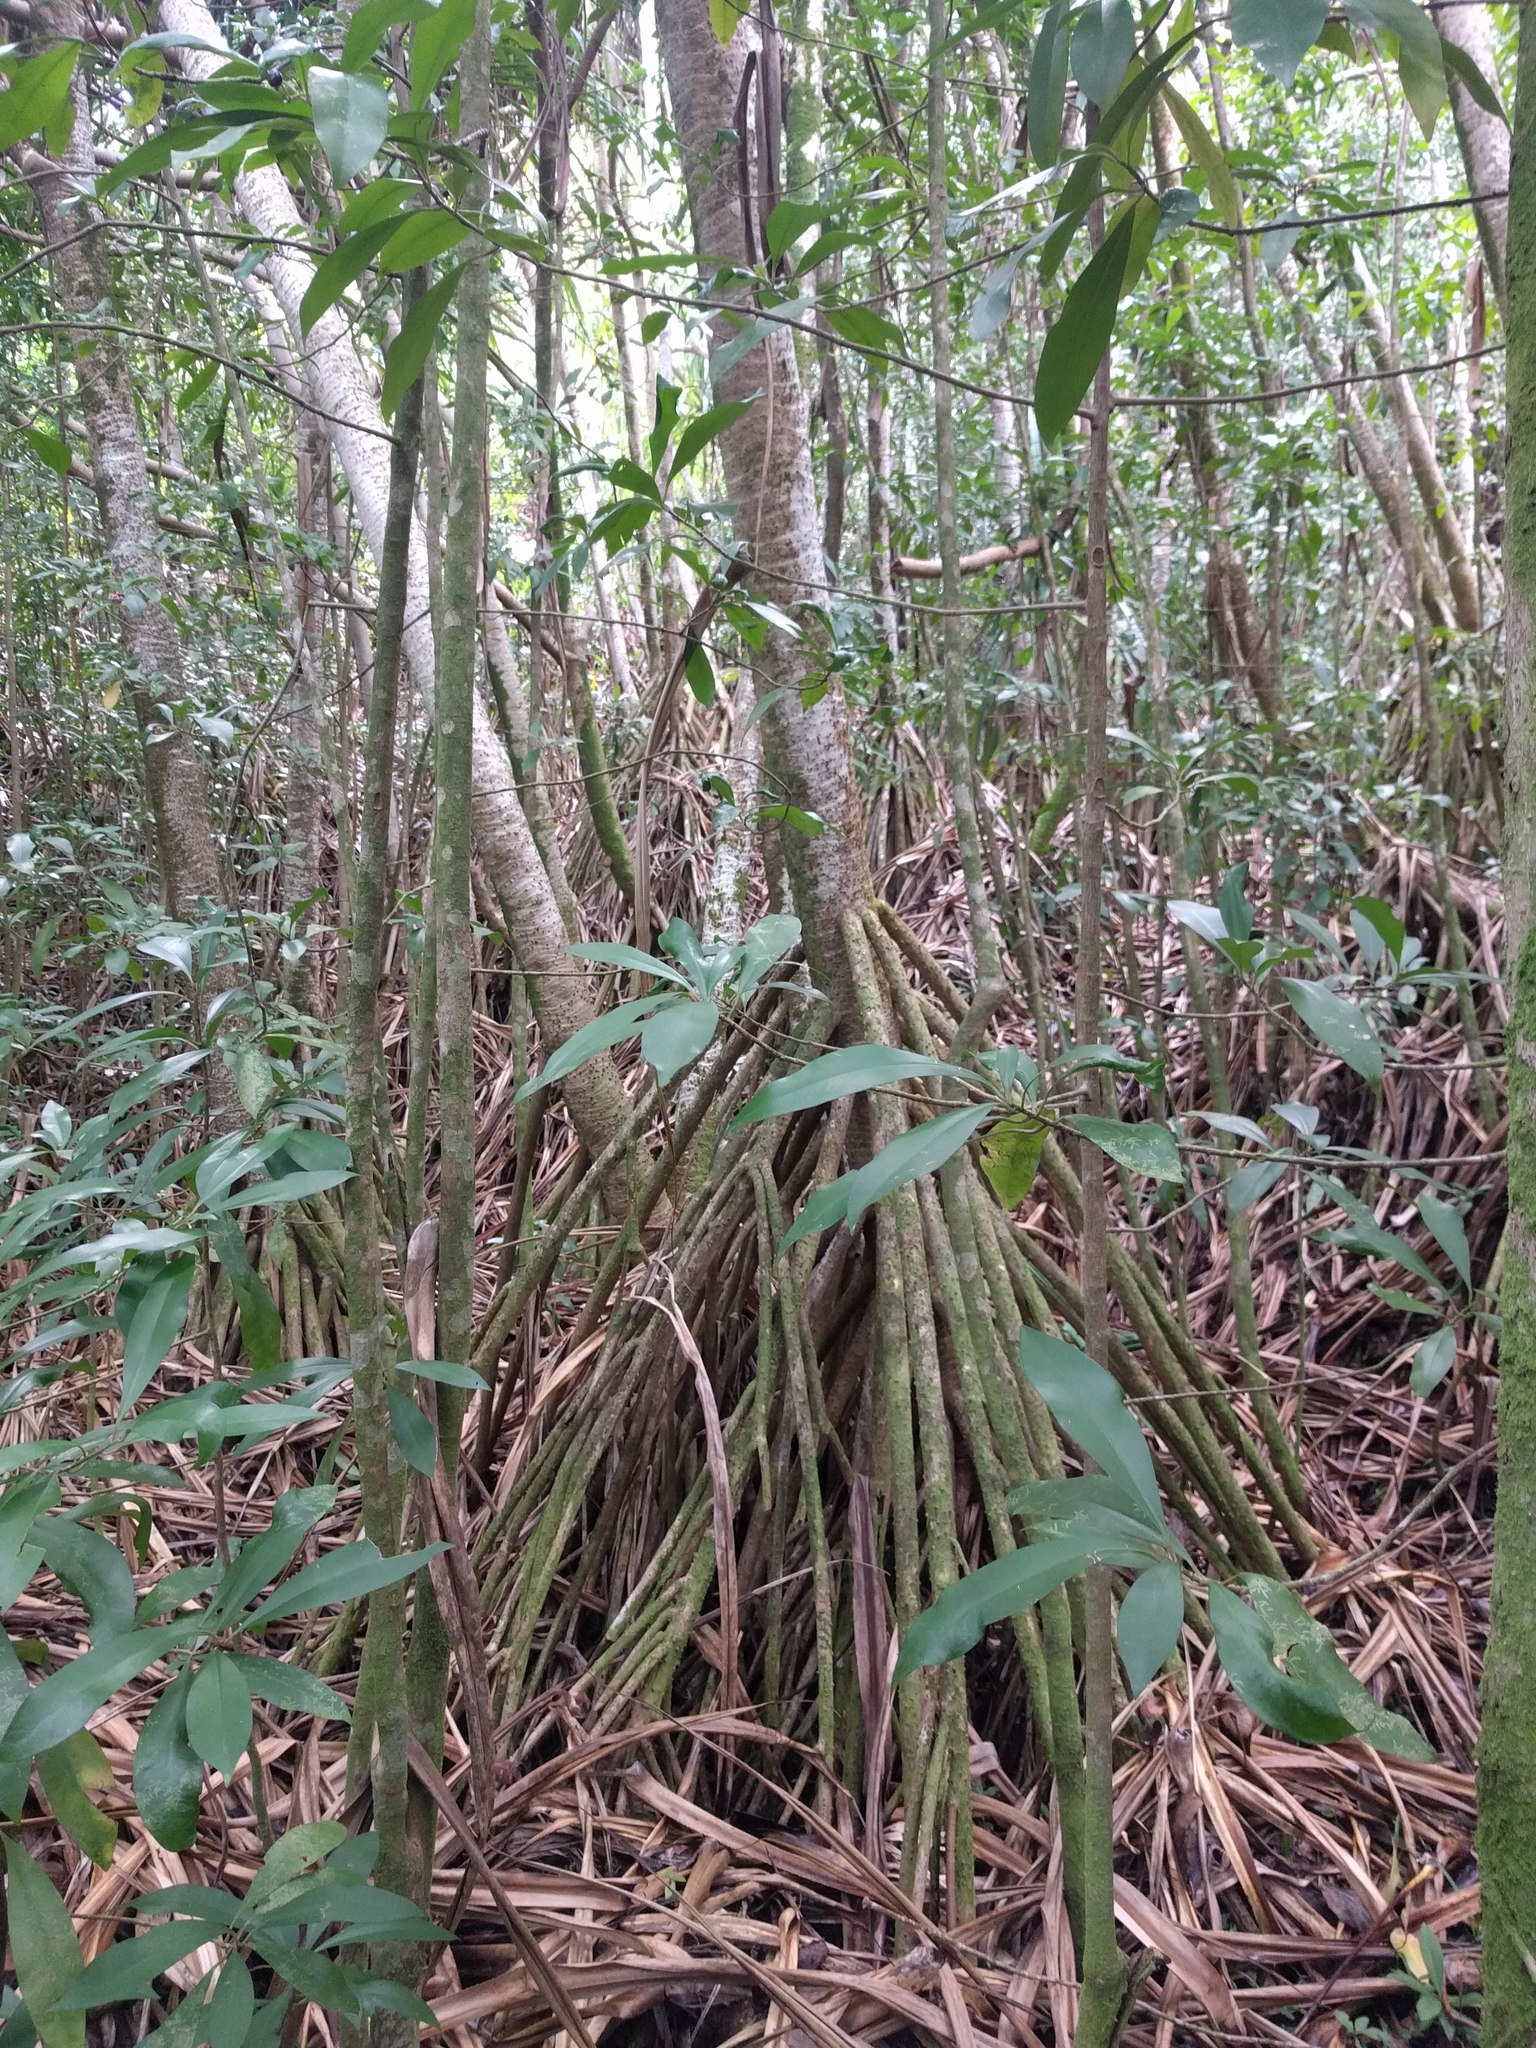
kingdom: Plantae
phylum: Tracheophyta
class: Liliopsida
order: Pandanales
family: Pandanaceae
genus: Pandanus
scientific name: Pandanus tectorius
